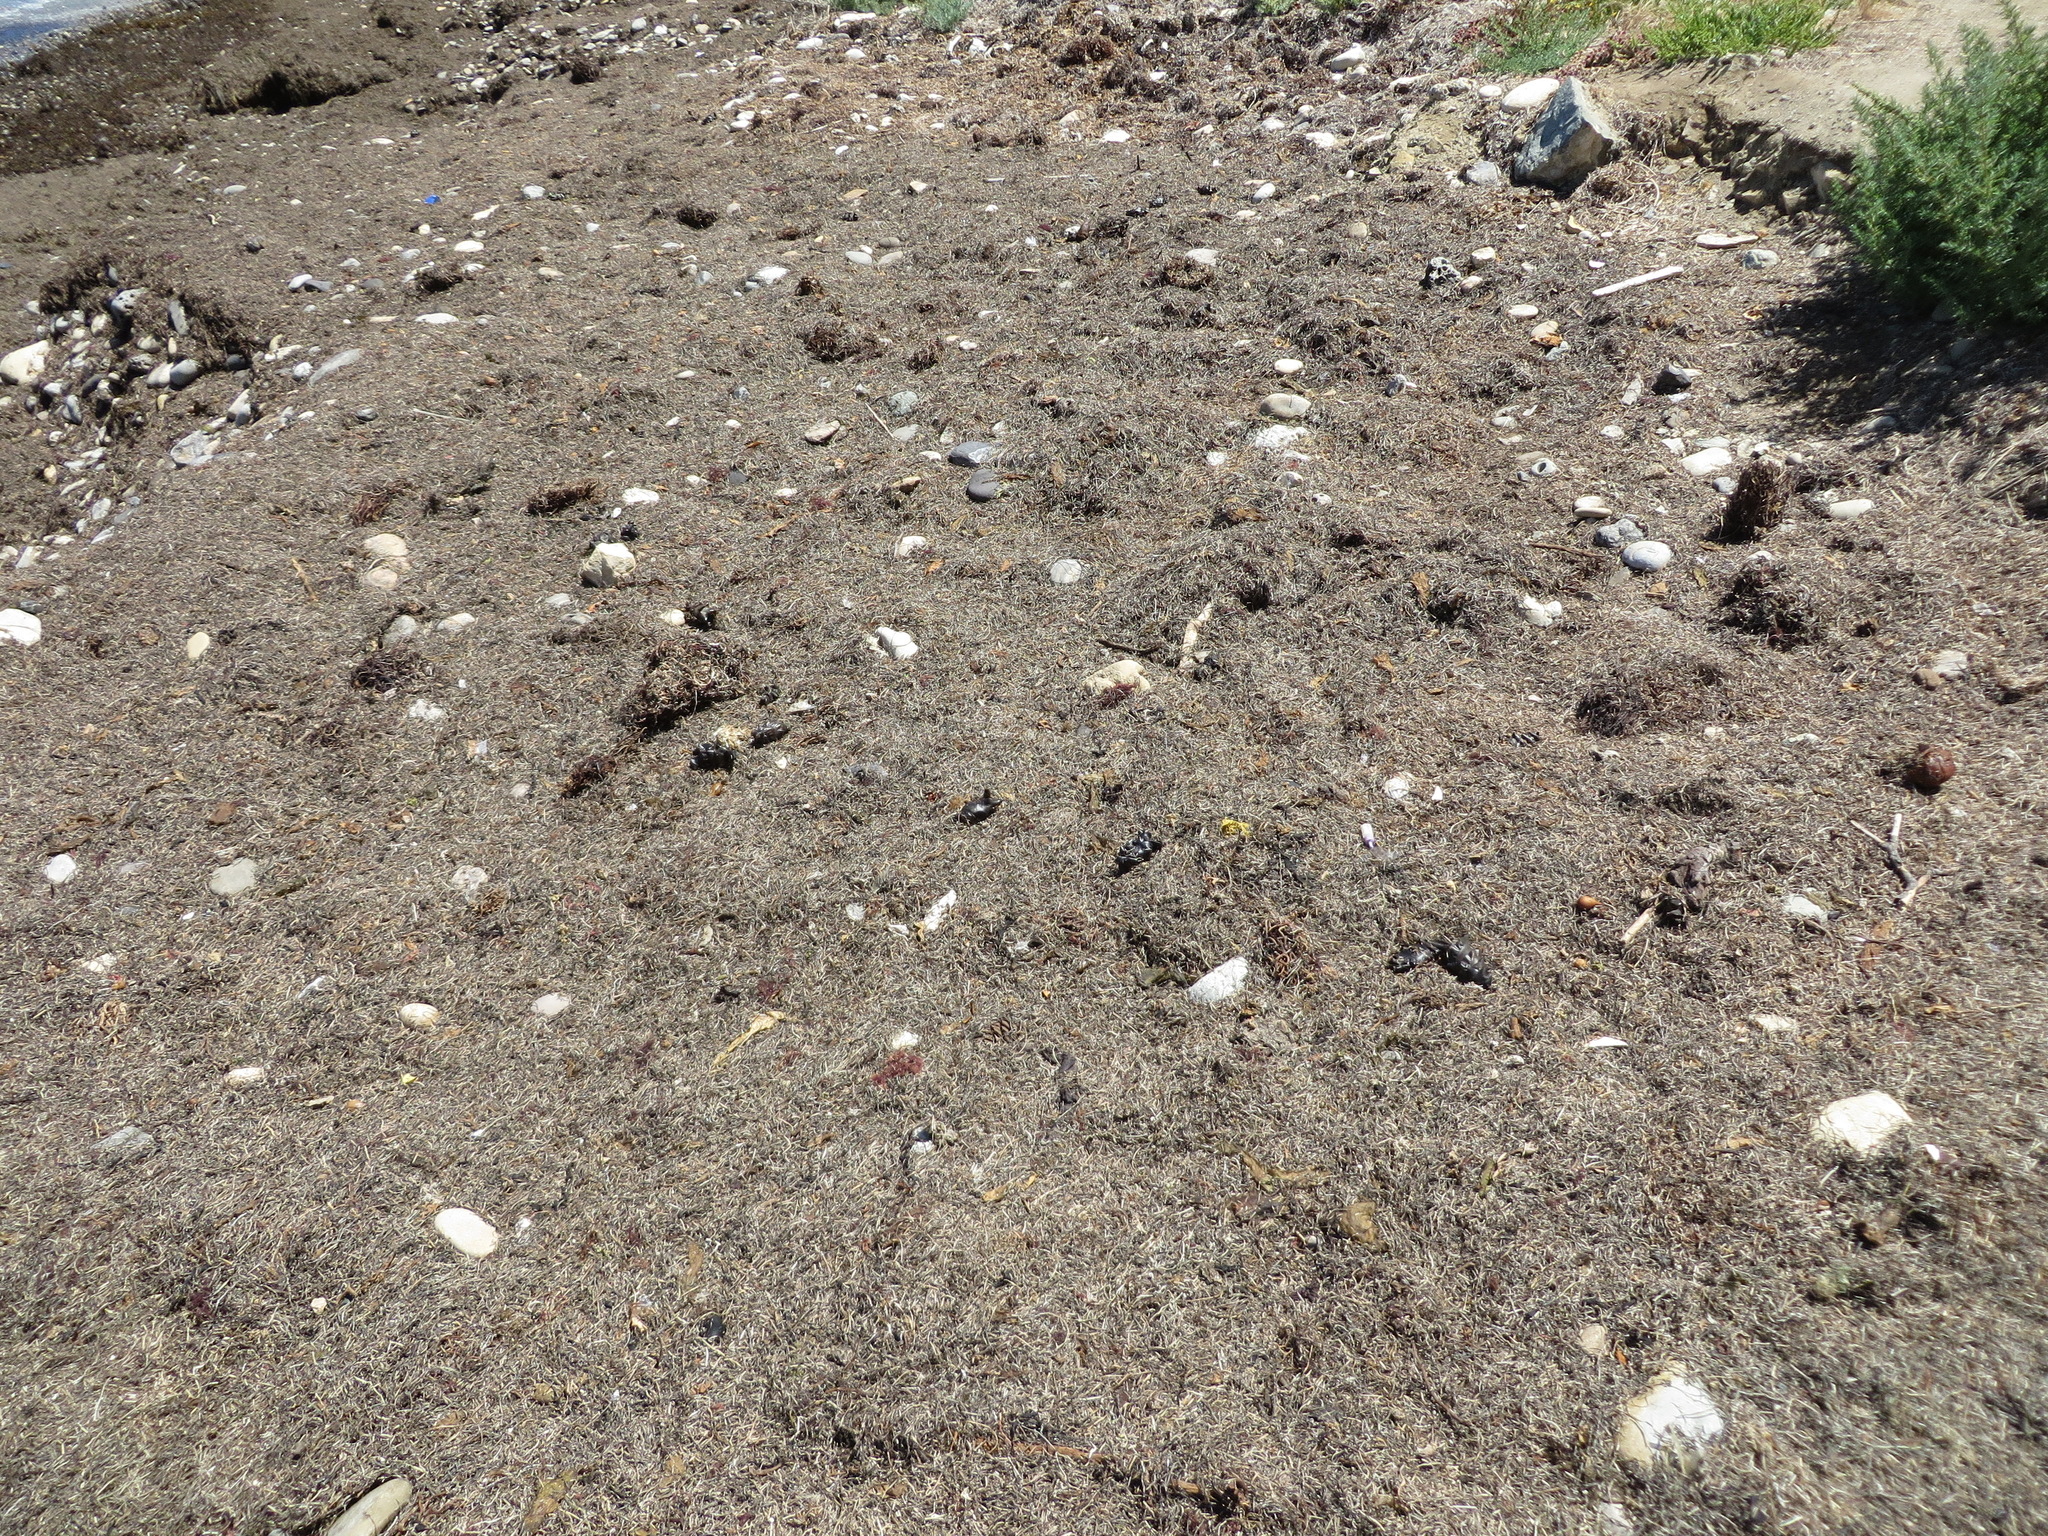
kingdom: Animalia
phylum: Chordata
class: Elasmobranchii
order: Heterodontiformes
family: Heterodontidae
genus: Heterodontus
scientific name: Heterodontus francisci
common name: Horn shark
